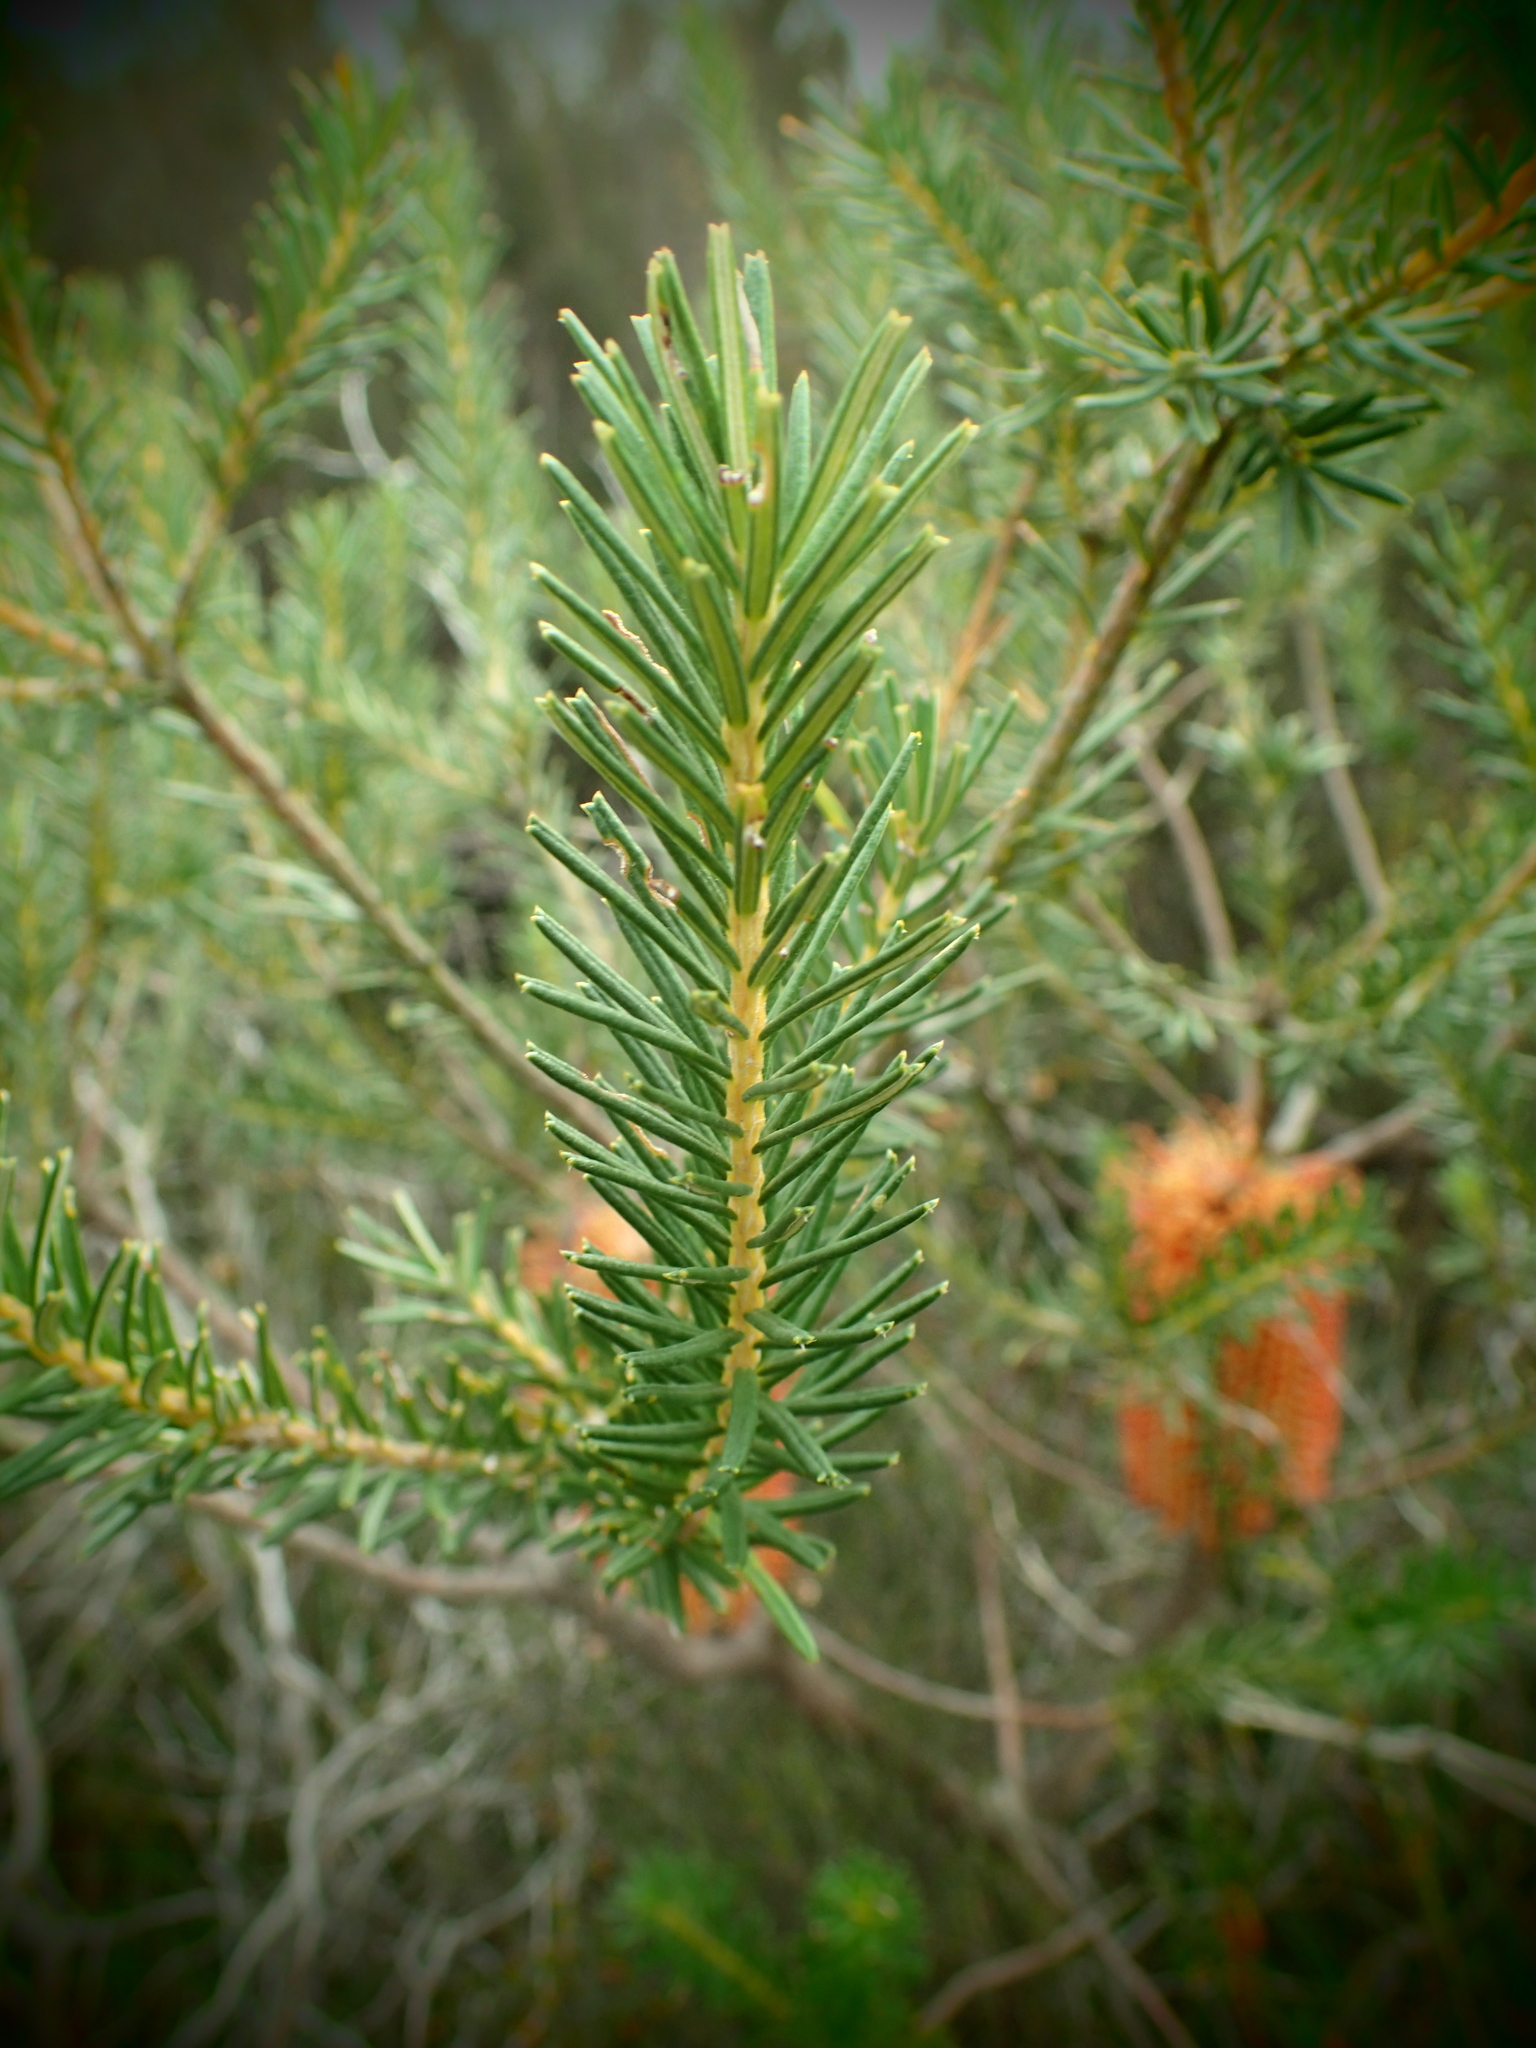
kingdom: Plantae
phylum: Tracheophyta
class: Magnoliopsida
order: Proteales
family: Proteaceae
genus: Banksia
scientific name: Banksia ericifolia
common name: Heath-leaf banksia
